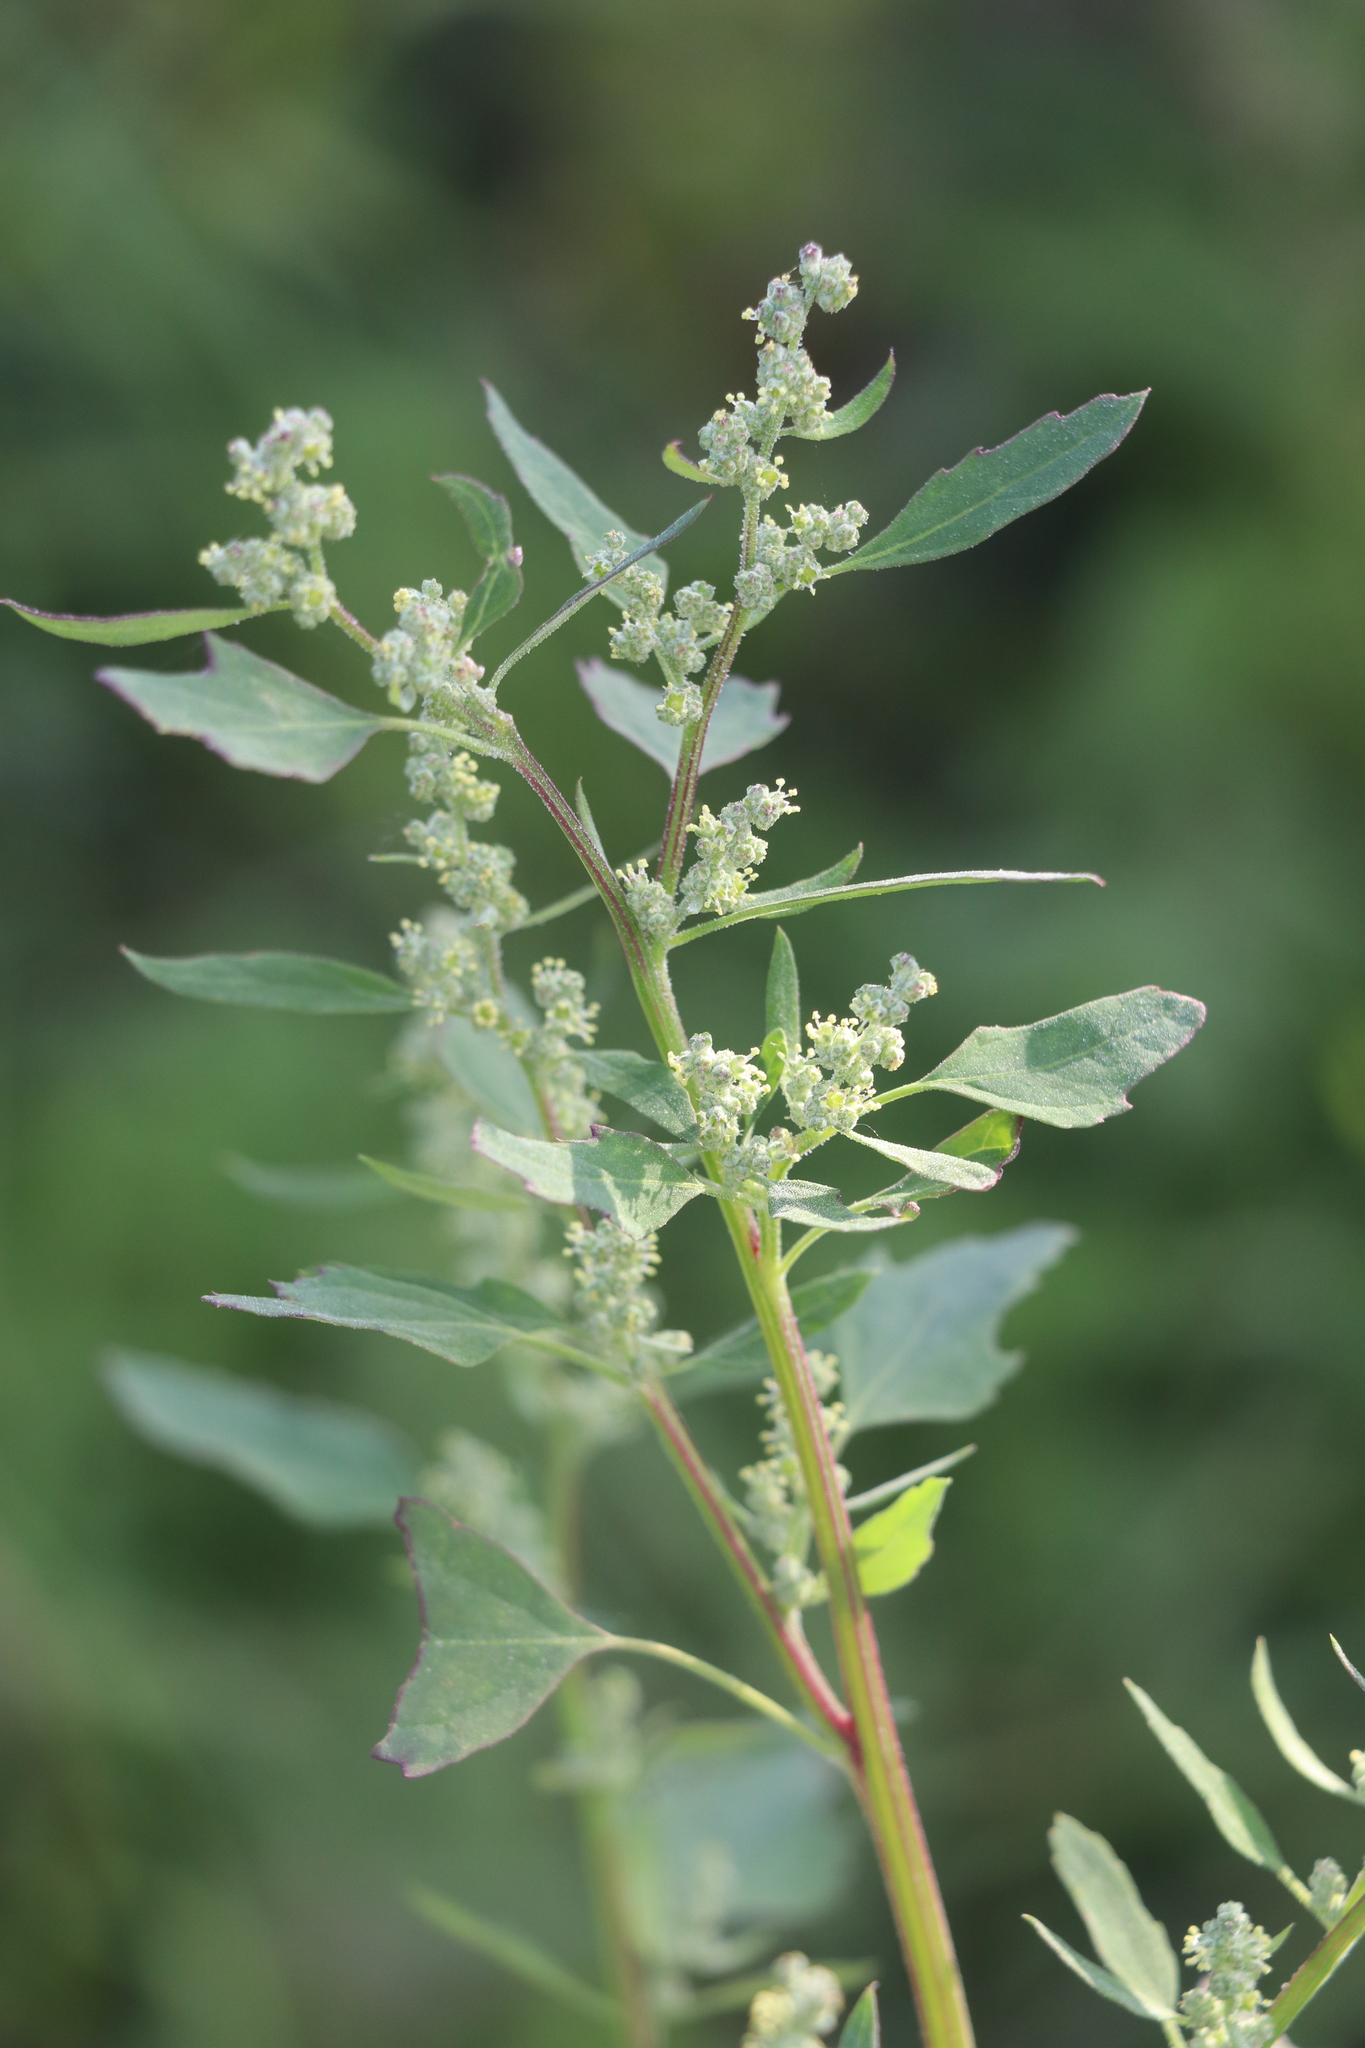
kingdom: Plantae
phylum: Tracheophyta
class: Magnoliopsida
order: Caryophyllales
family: Amaranthaceae
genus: Chenopodium
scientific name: Chenopodium album
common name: Fat-hen
